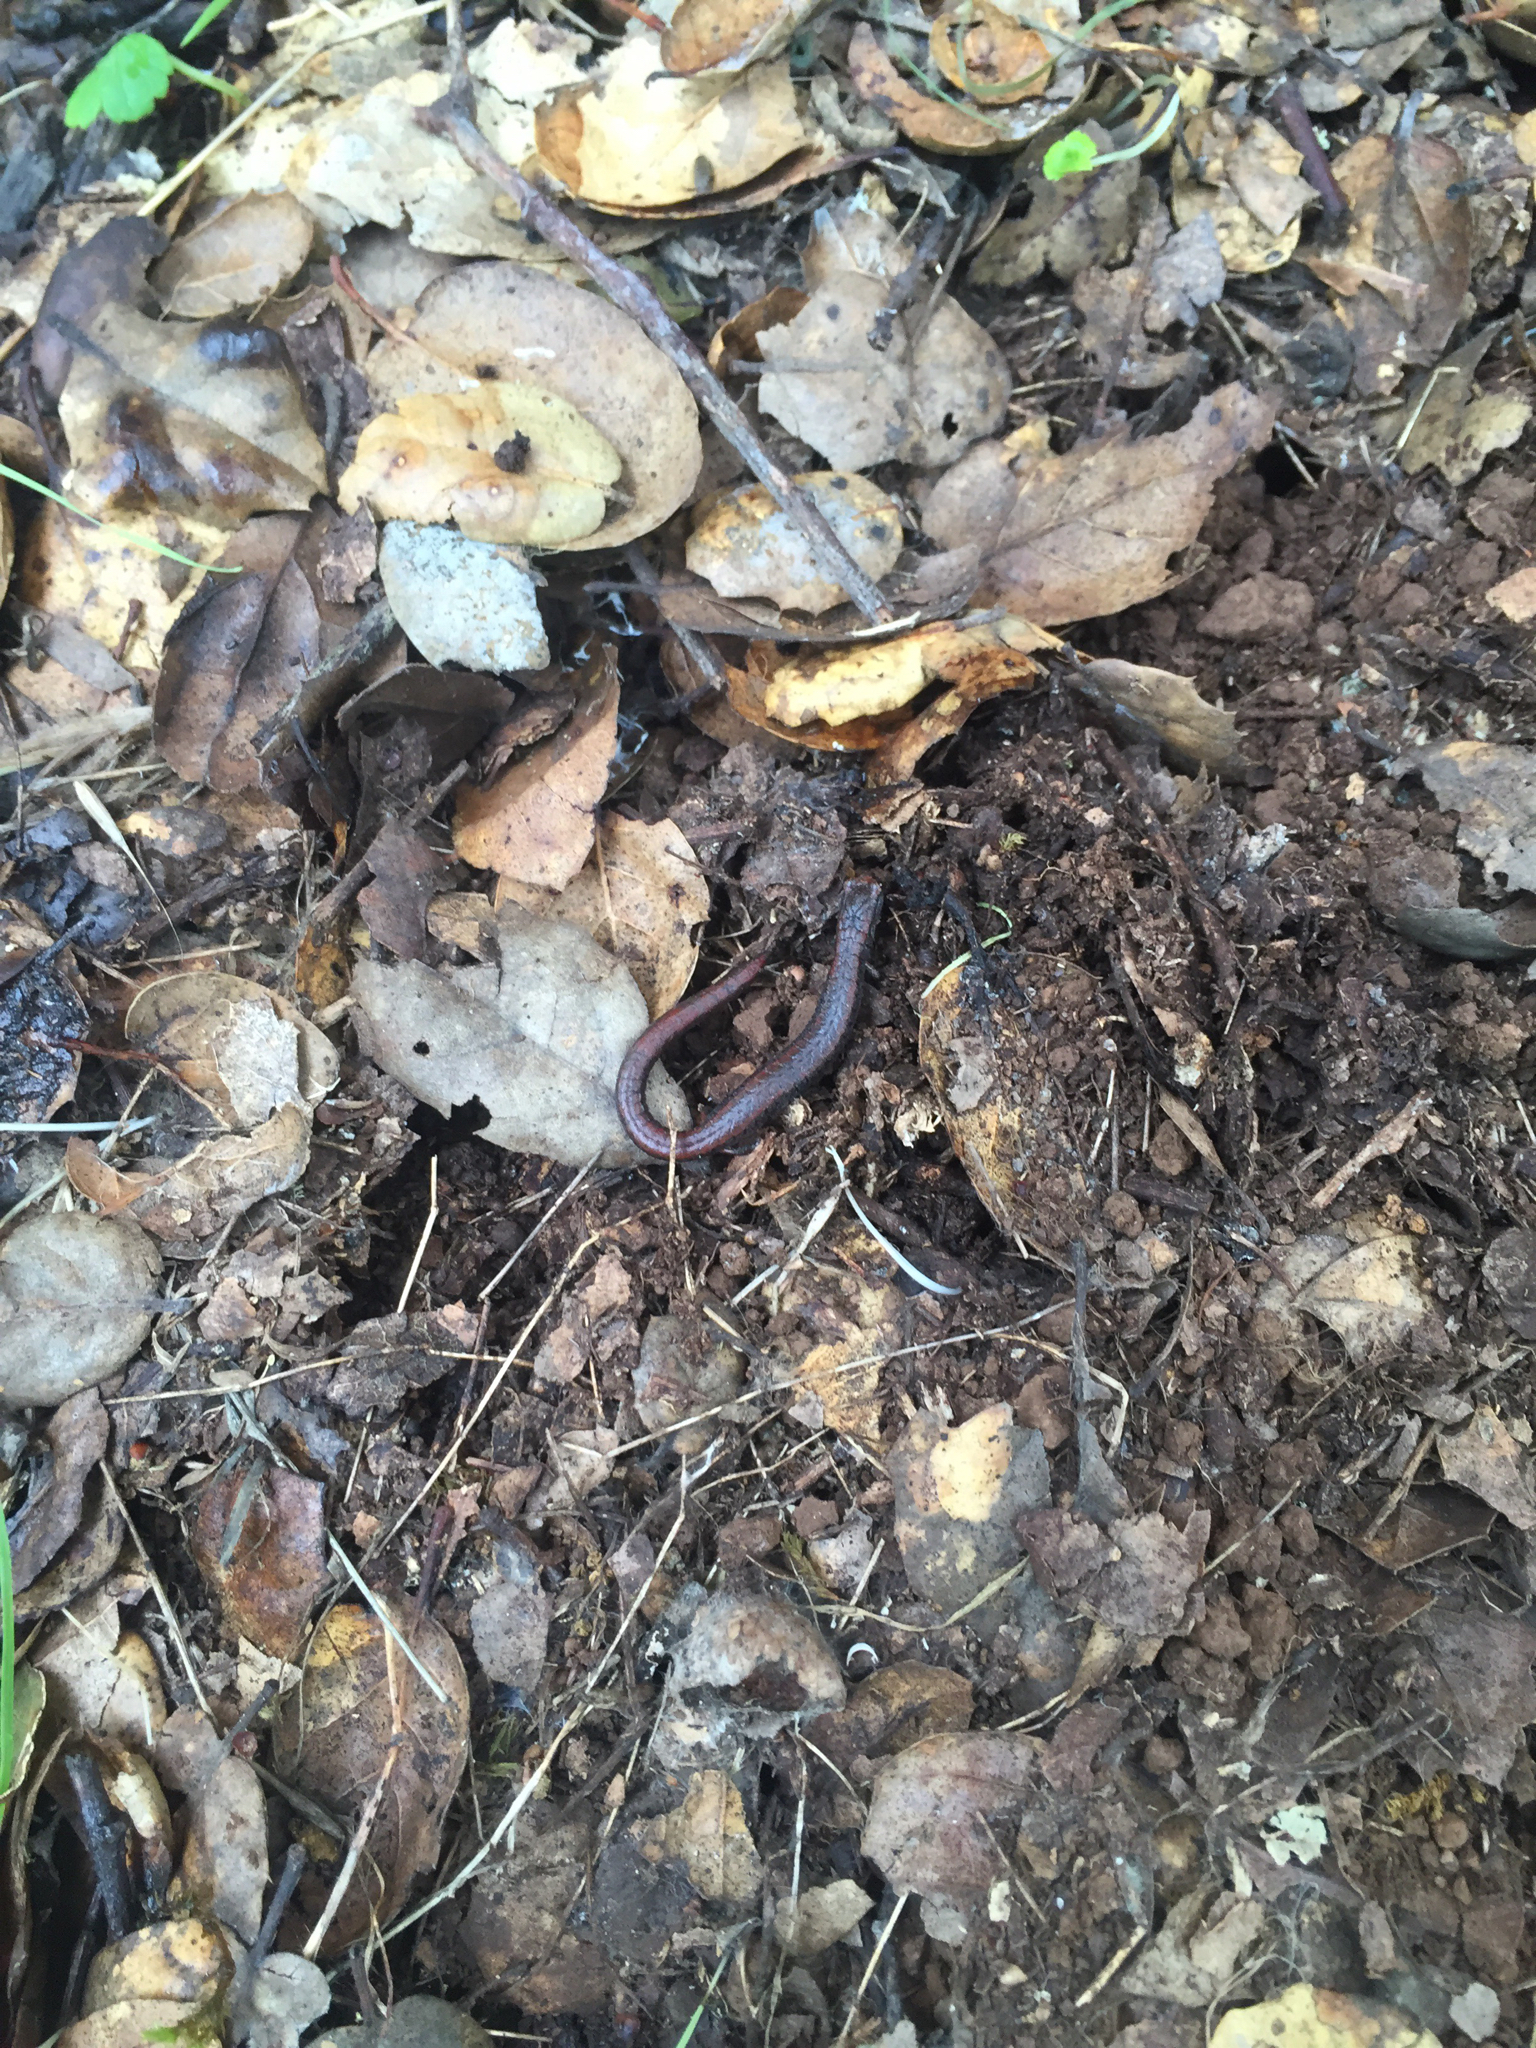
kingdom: Animalia
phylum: Chordata
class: Amphibia
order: Caudata
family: Plethodontidae
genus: Batrachoseps
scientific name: Batrachoseps attenuatus
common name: California slender salamander
